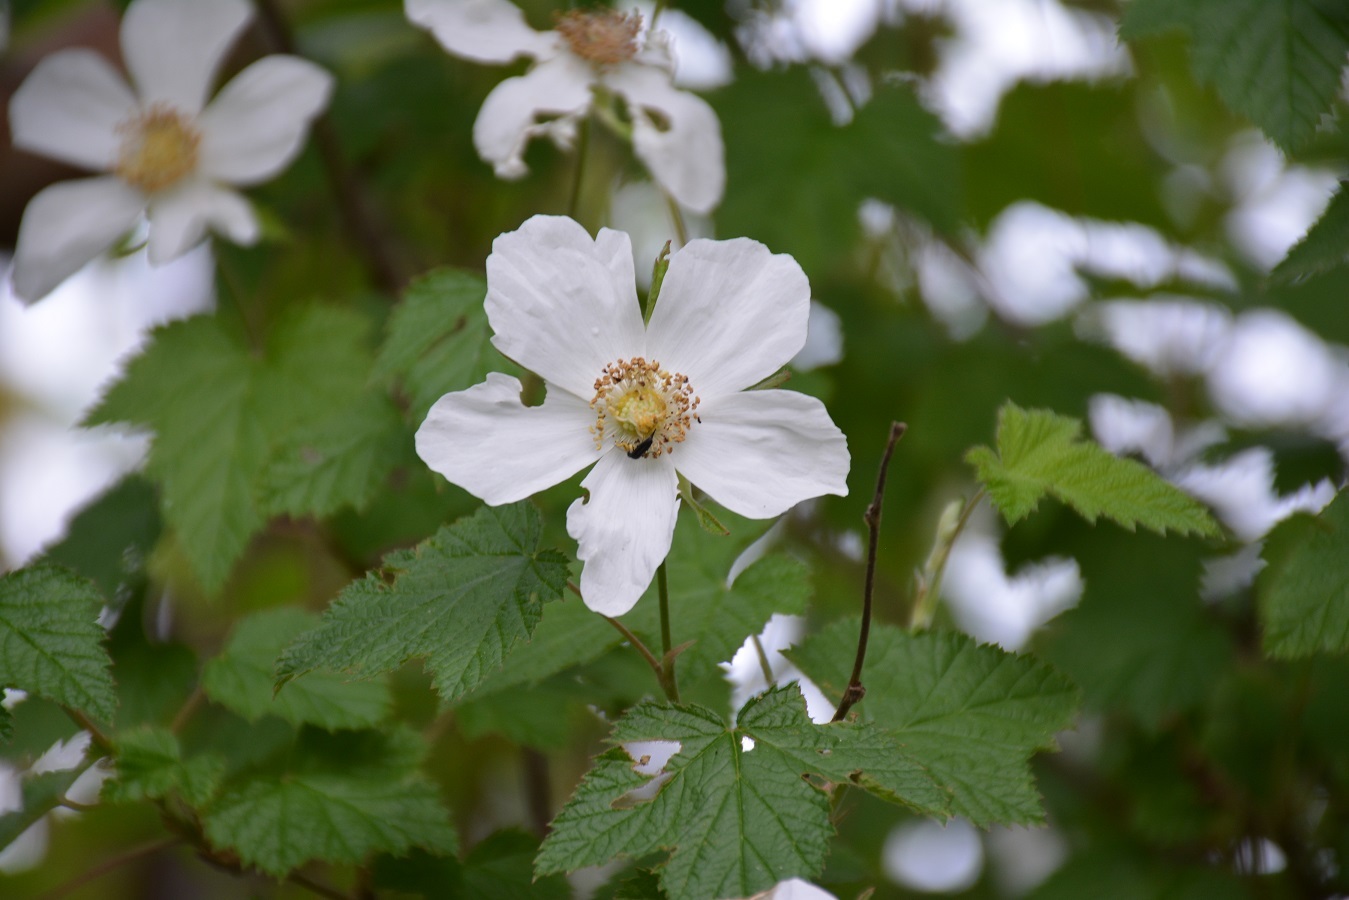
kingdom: Plantae
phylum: Tracheophyta
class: Magnoliopsida
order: Rosales
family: Rosaceae
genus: Rubus
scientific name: Rubus trilobus
